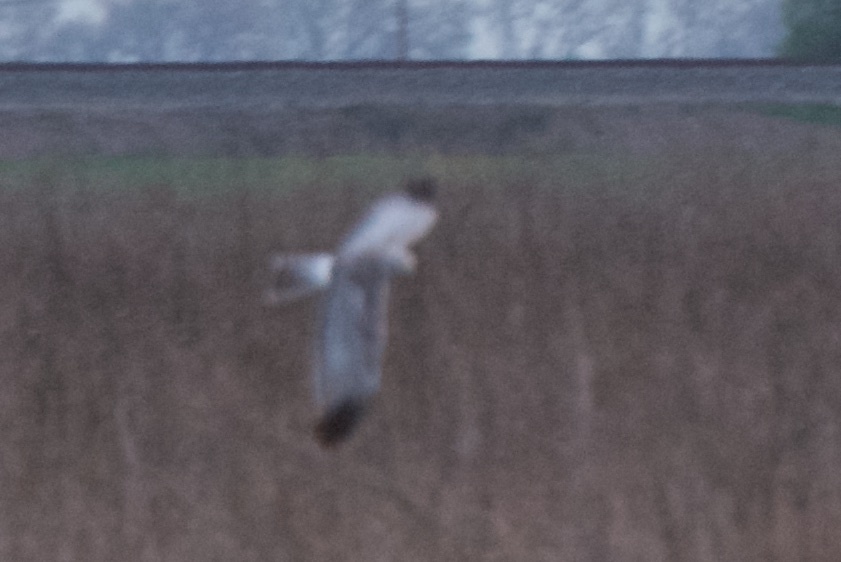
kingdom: Animalia
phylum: Chordata
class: Aves
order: Accipitriformes
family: Accipitridae
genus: Circus
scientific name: Circus cyaneus
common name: Hen harrier
